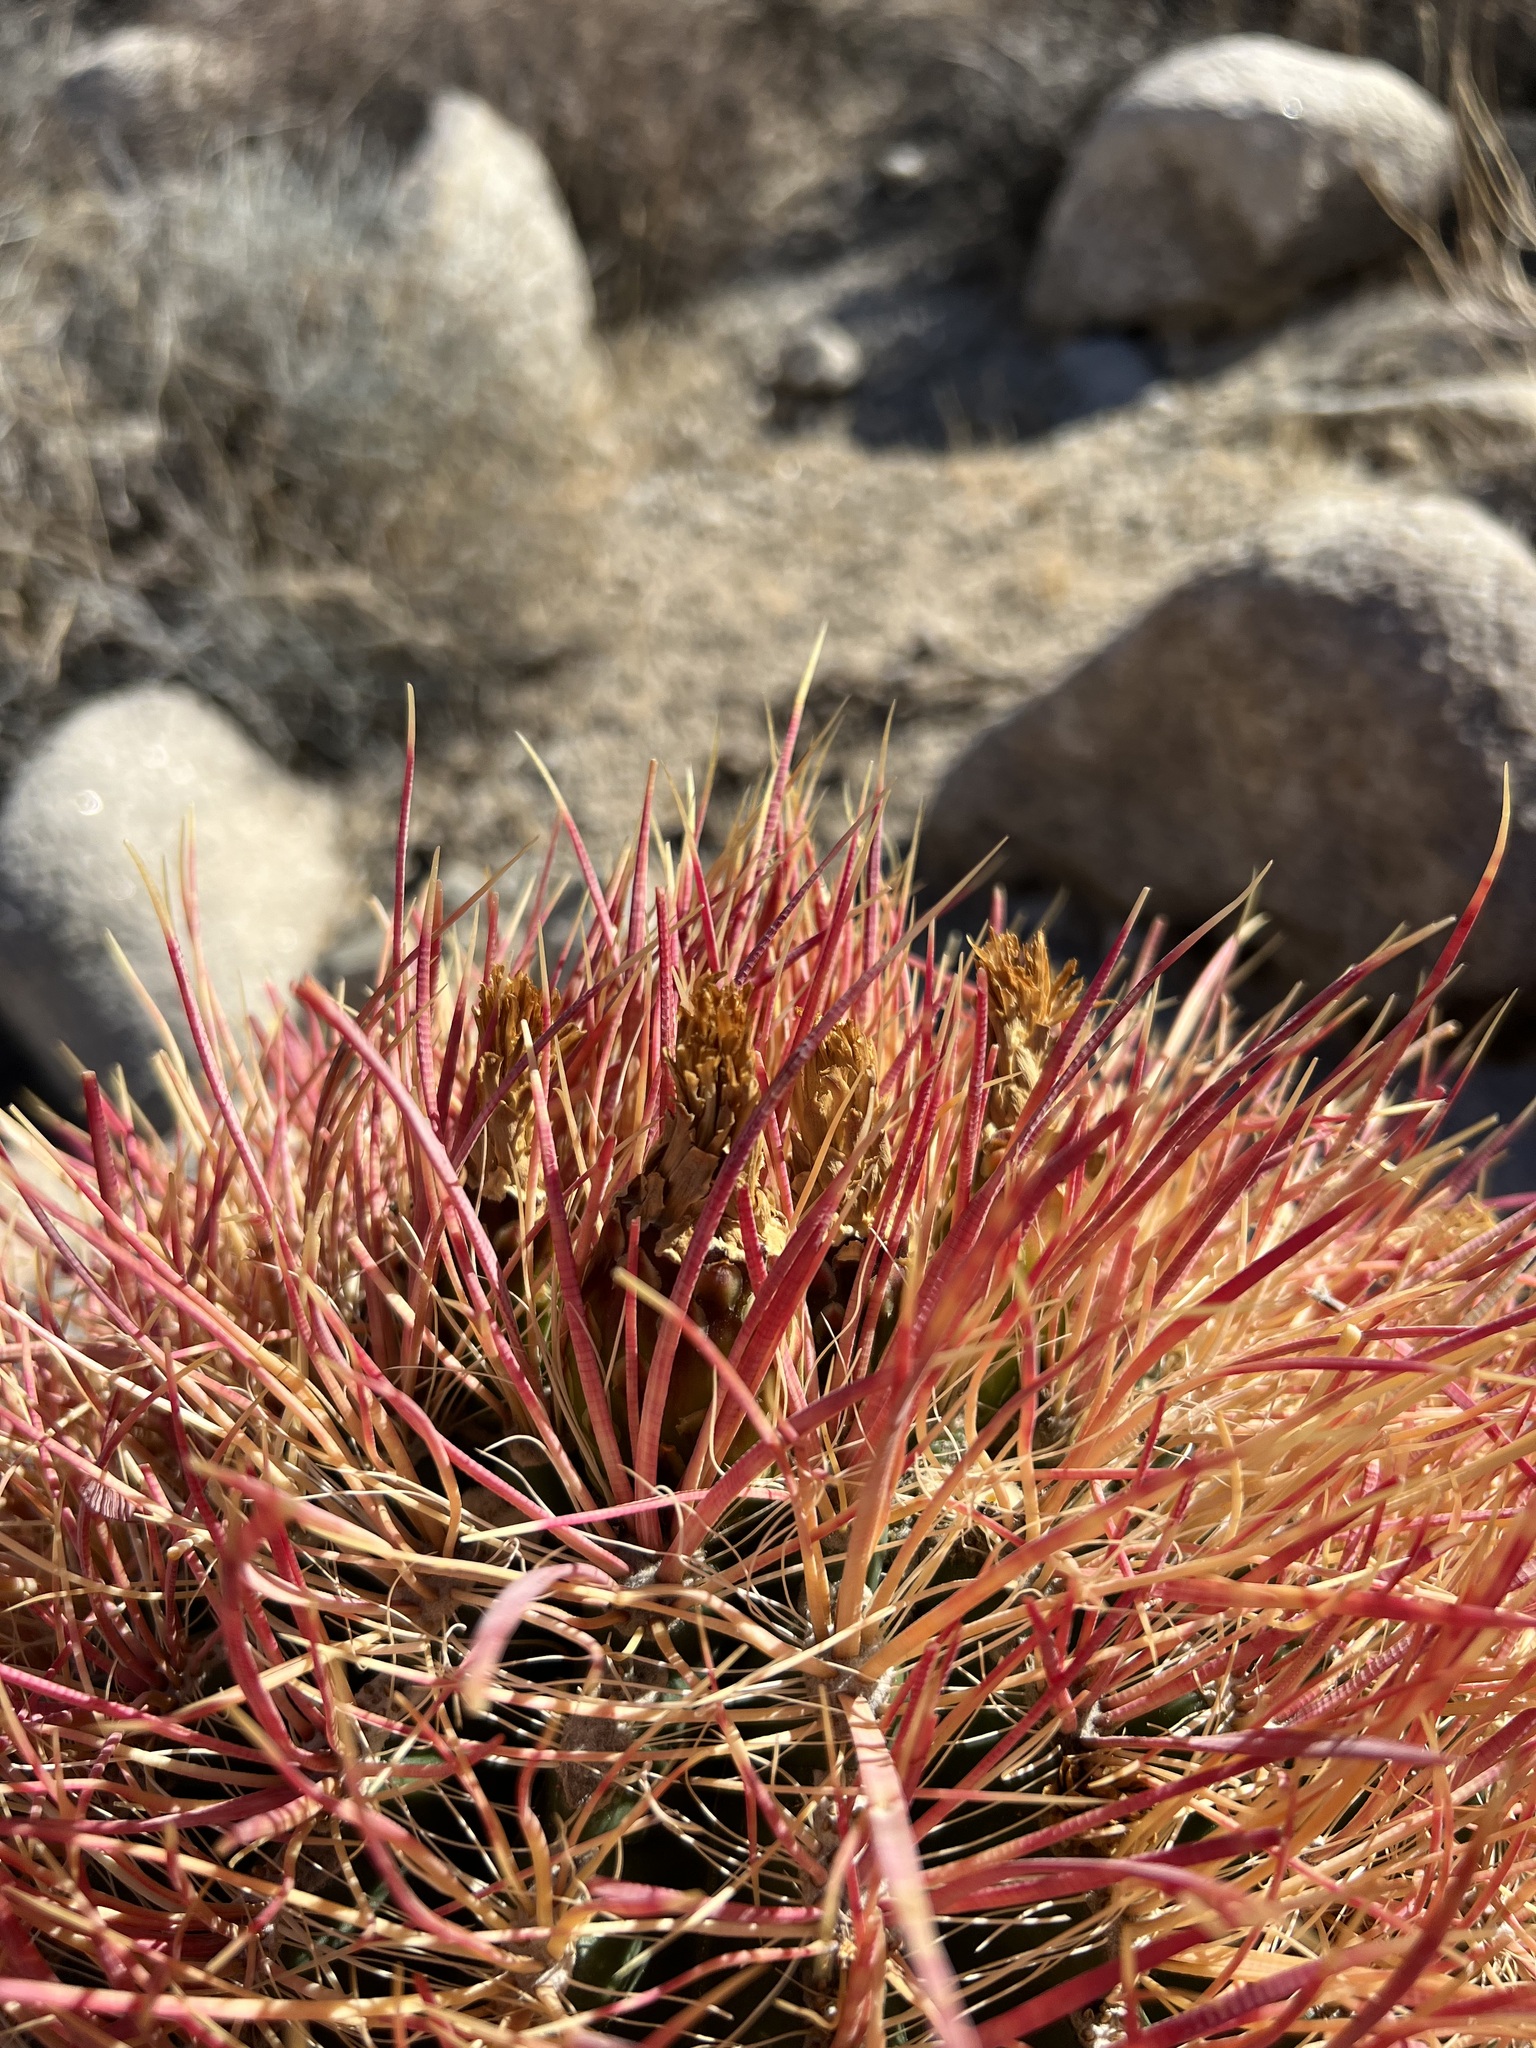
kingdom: Plantae
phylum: Tracheophyta
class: Magnoliopsida
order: Caryophyllales
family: Cactaceae
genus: Ferocactus
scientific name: Ferocactus cylindraceus
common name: California barrel cactus
